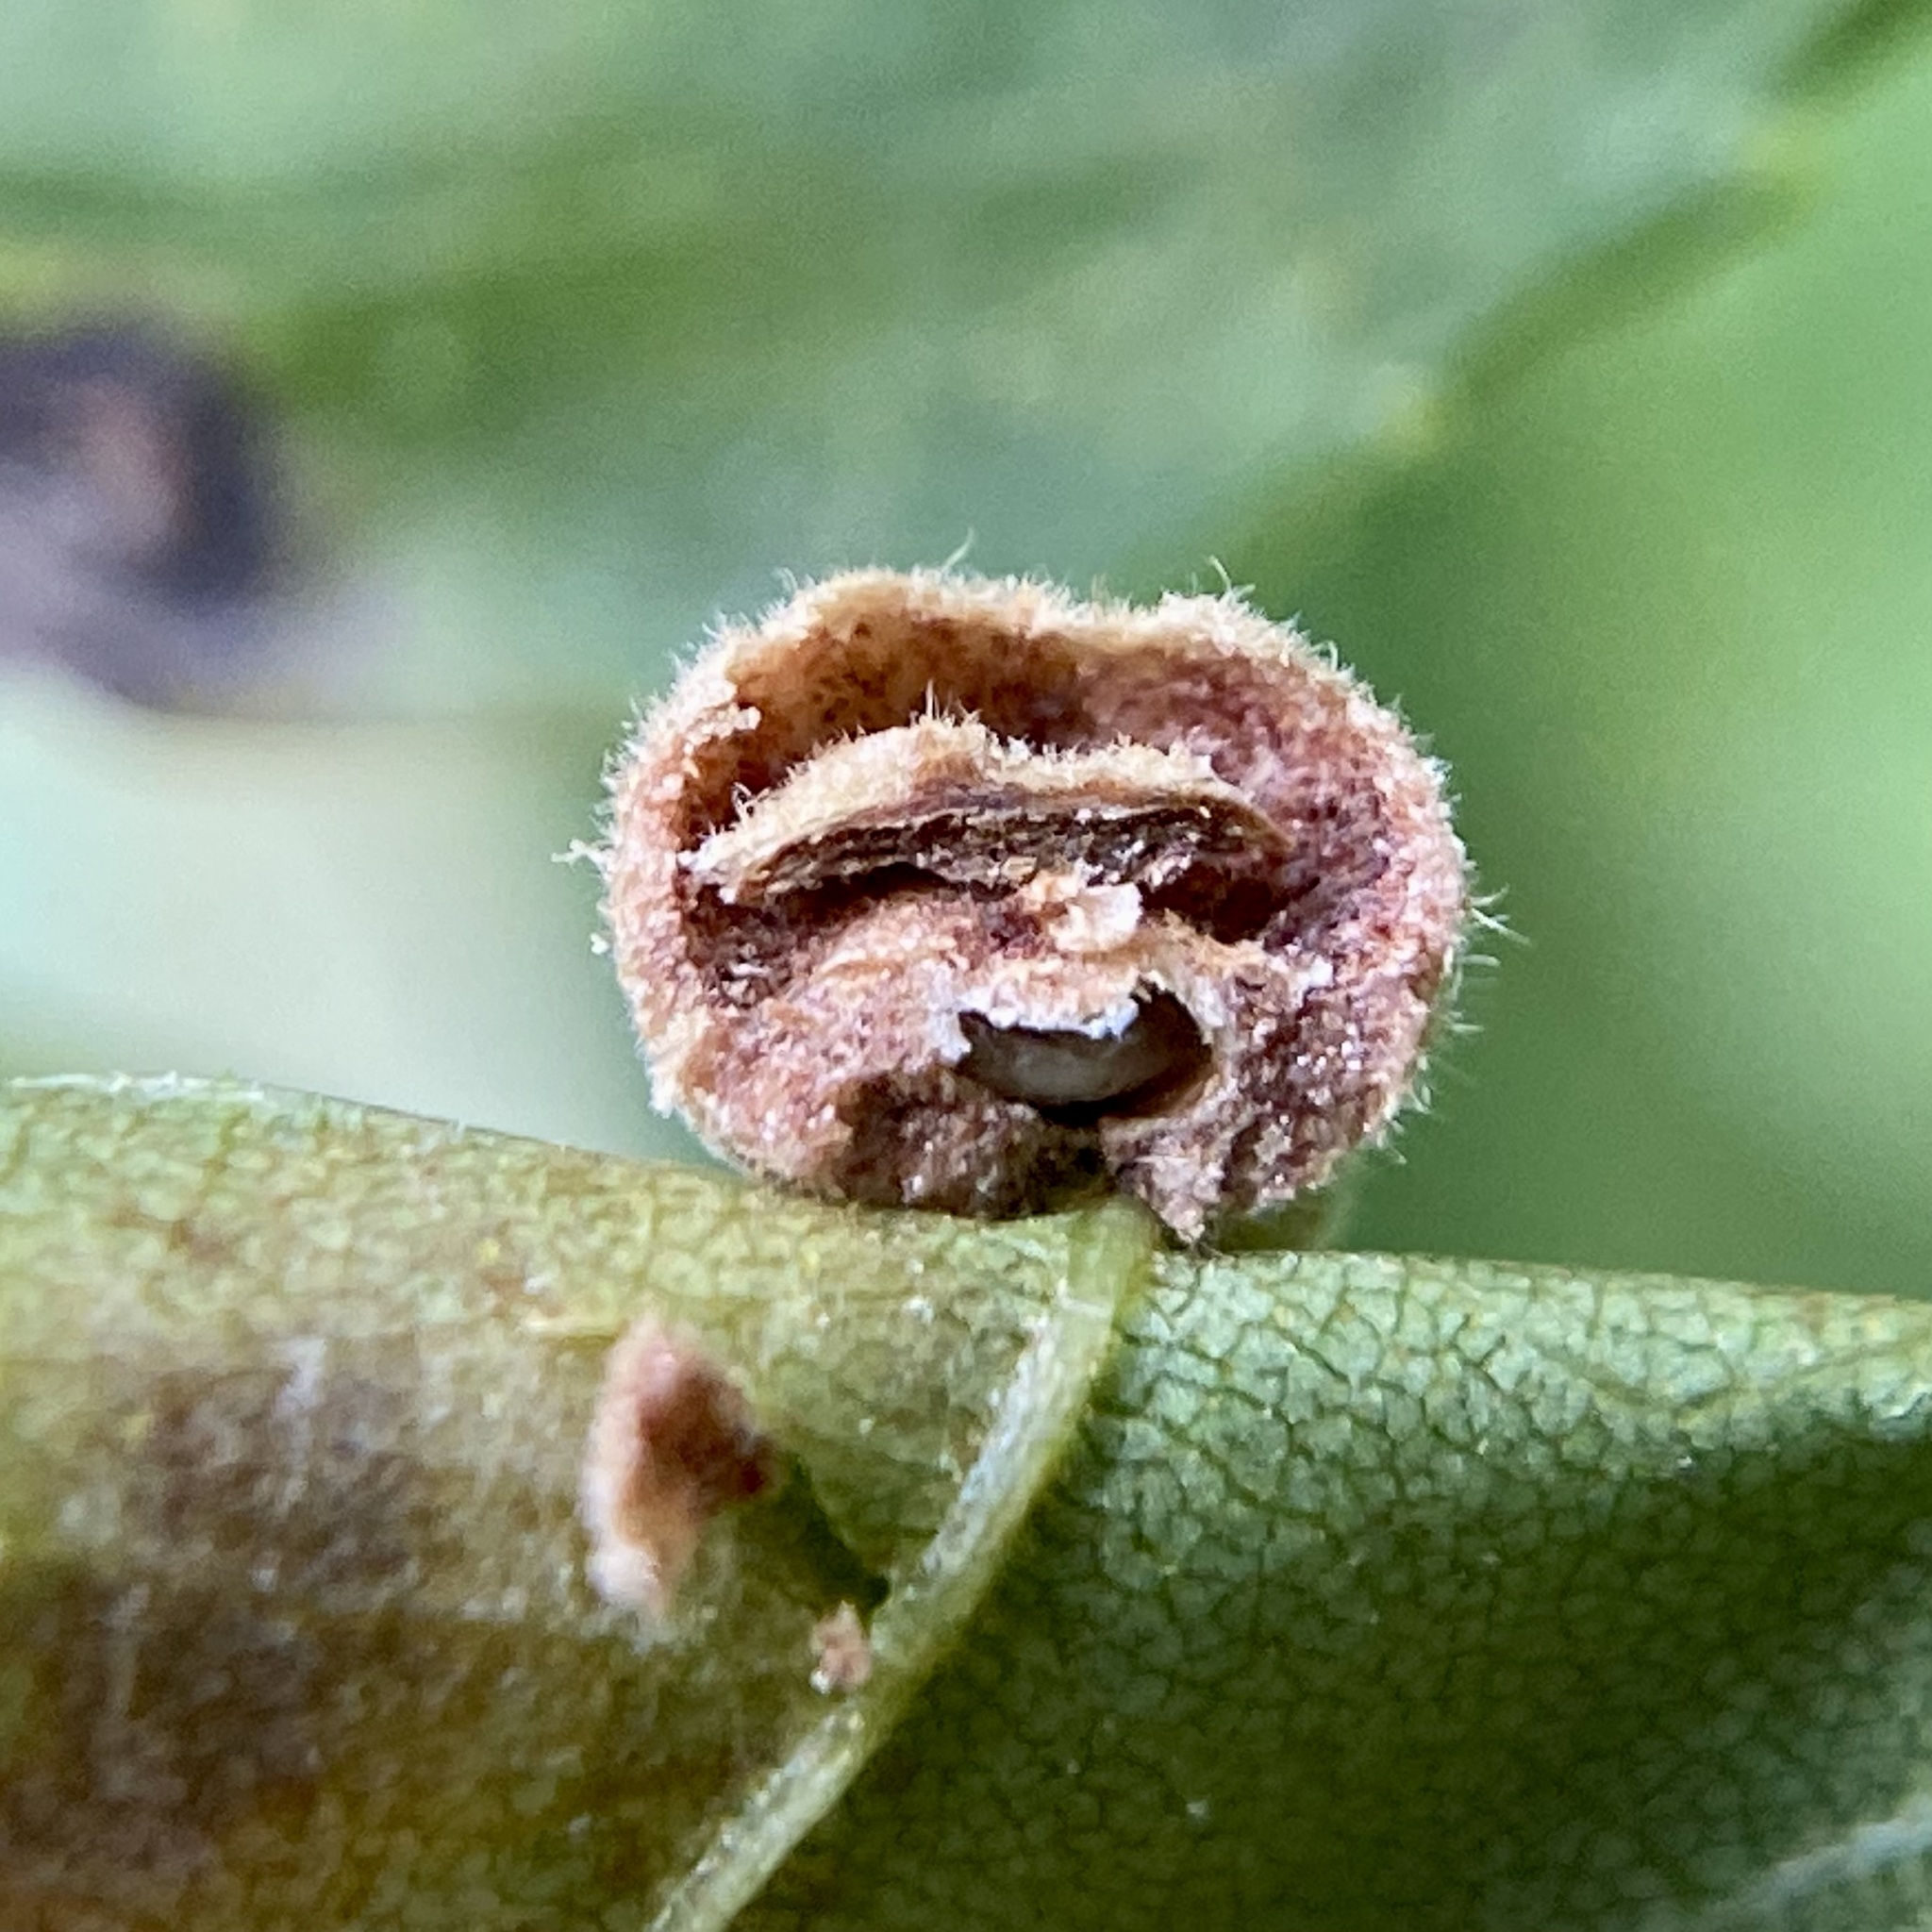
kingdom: Animalia
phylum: Arthropoda
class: Insecta
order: Diptera
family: Cecidomyiidae
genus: Caryomyia
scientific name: Caryomyia
